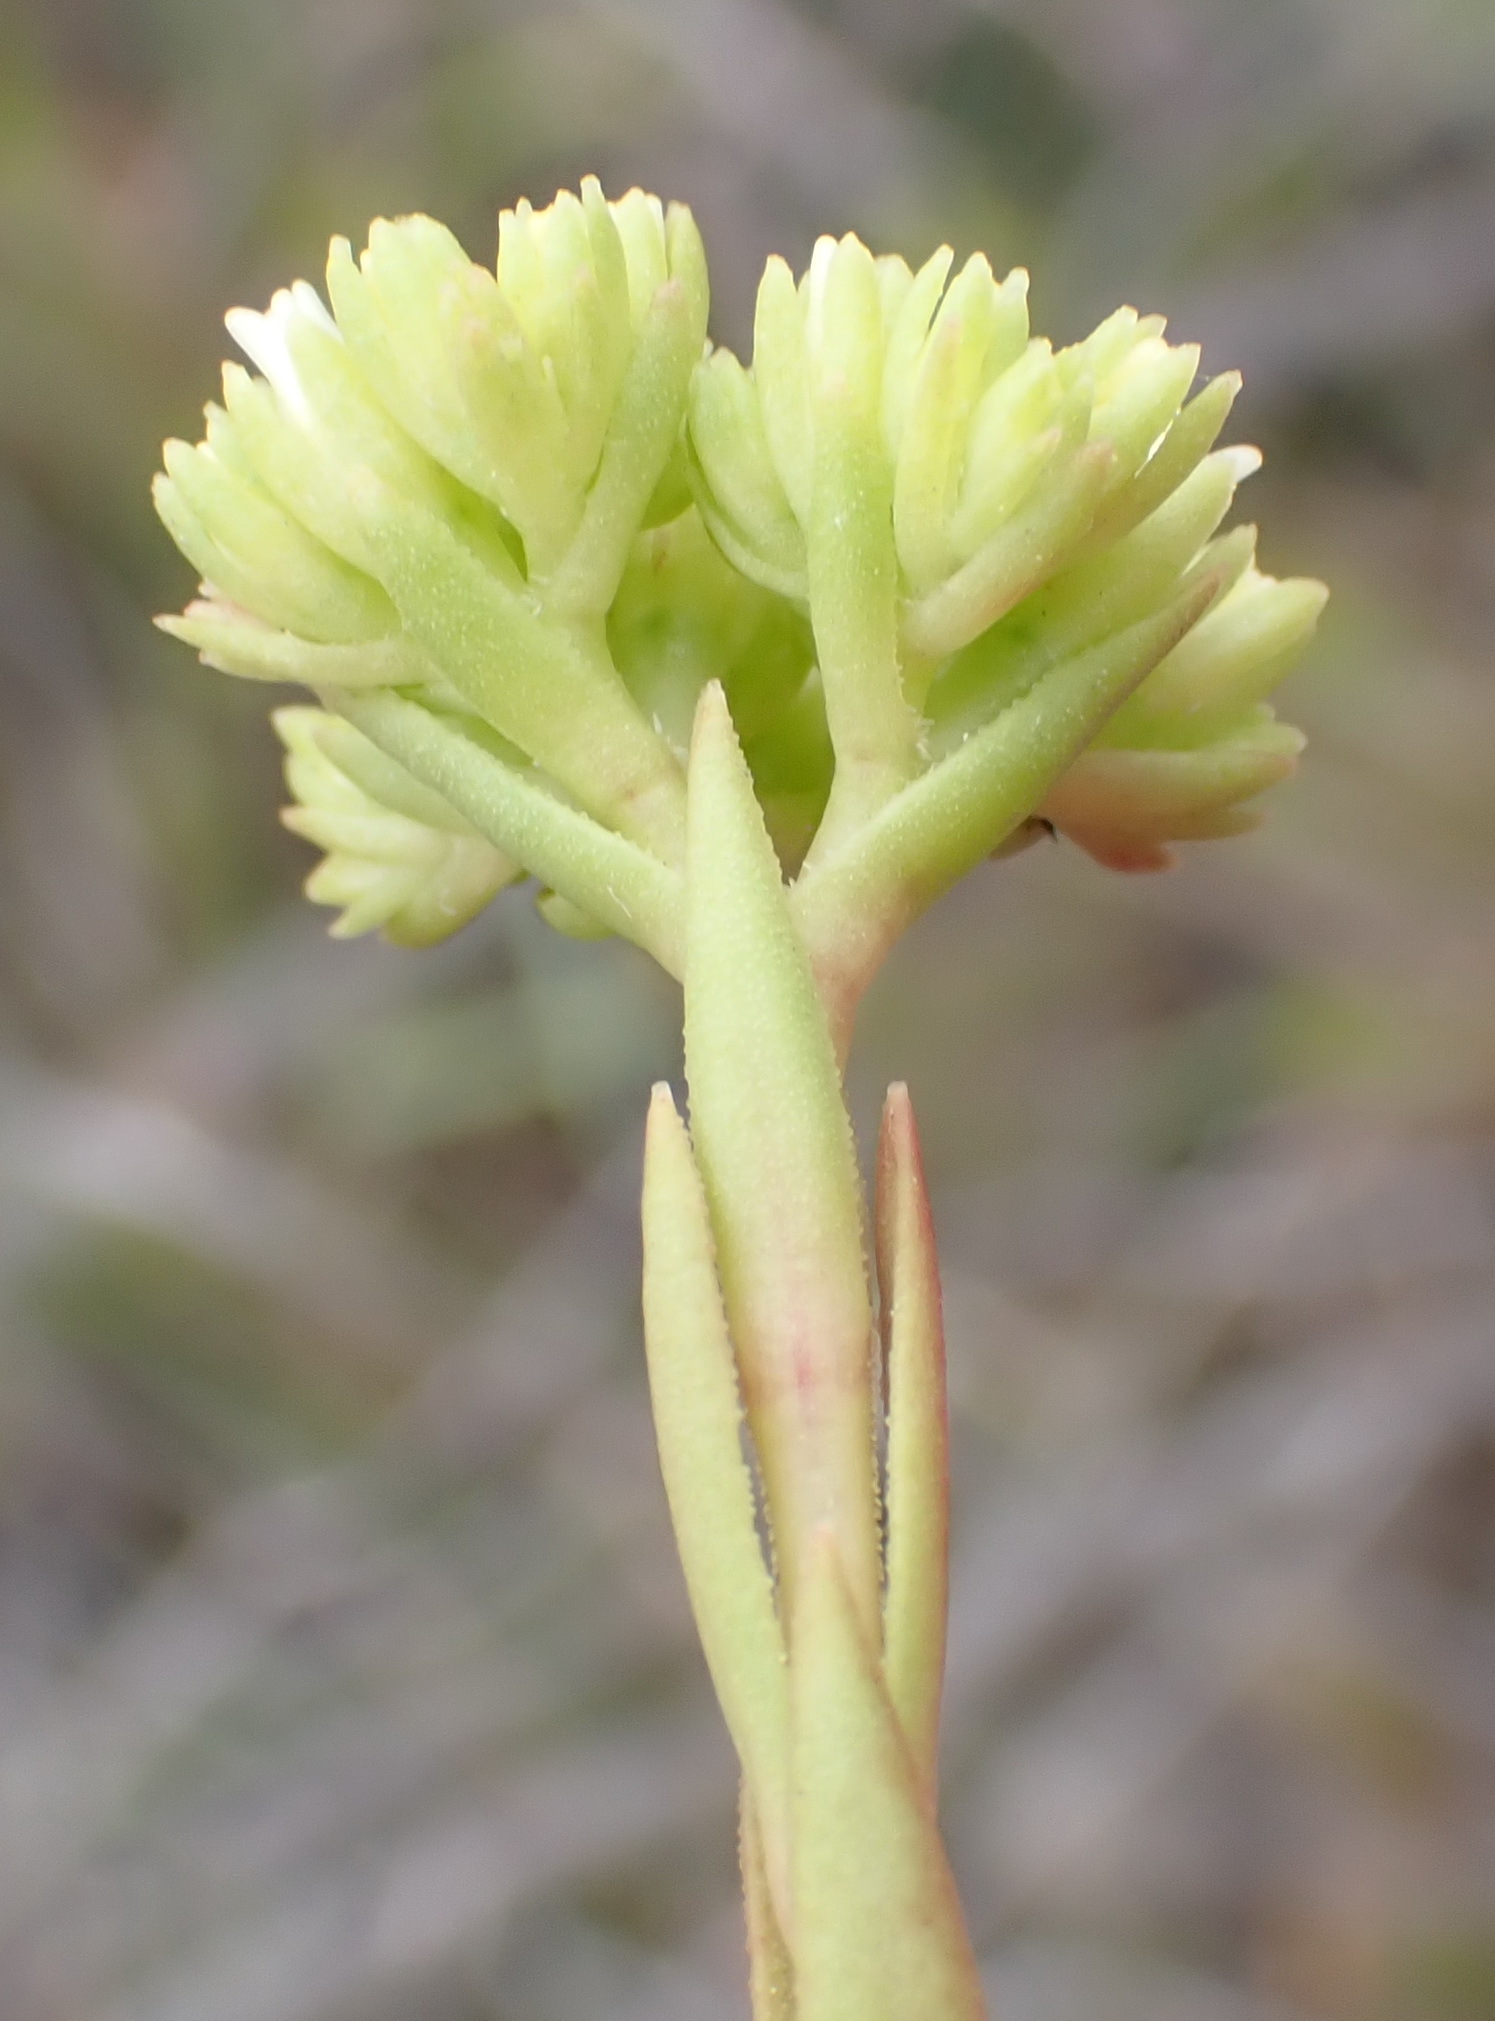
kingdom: Plantae
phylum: Tracheophyta
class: Magnoliopsida
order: Saxifragales
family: Crassulaceae
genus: Crassula
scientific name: Crassula subulata
